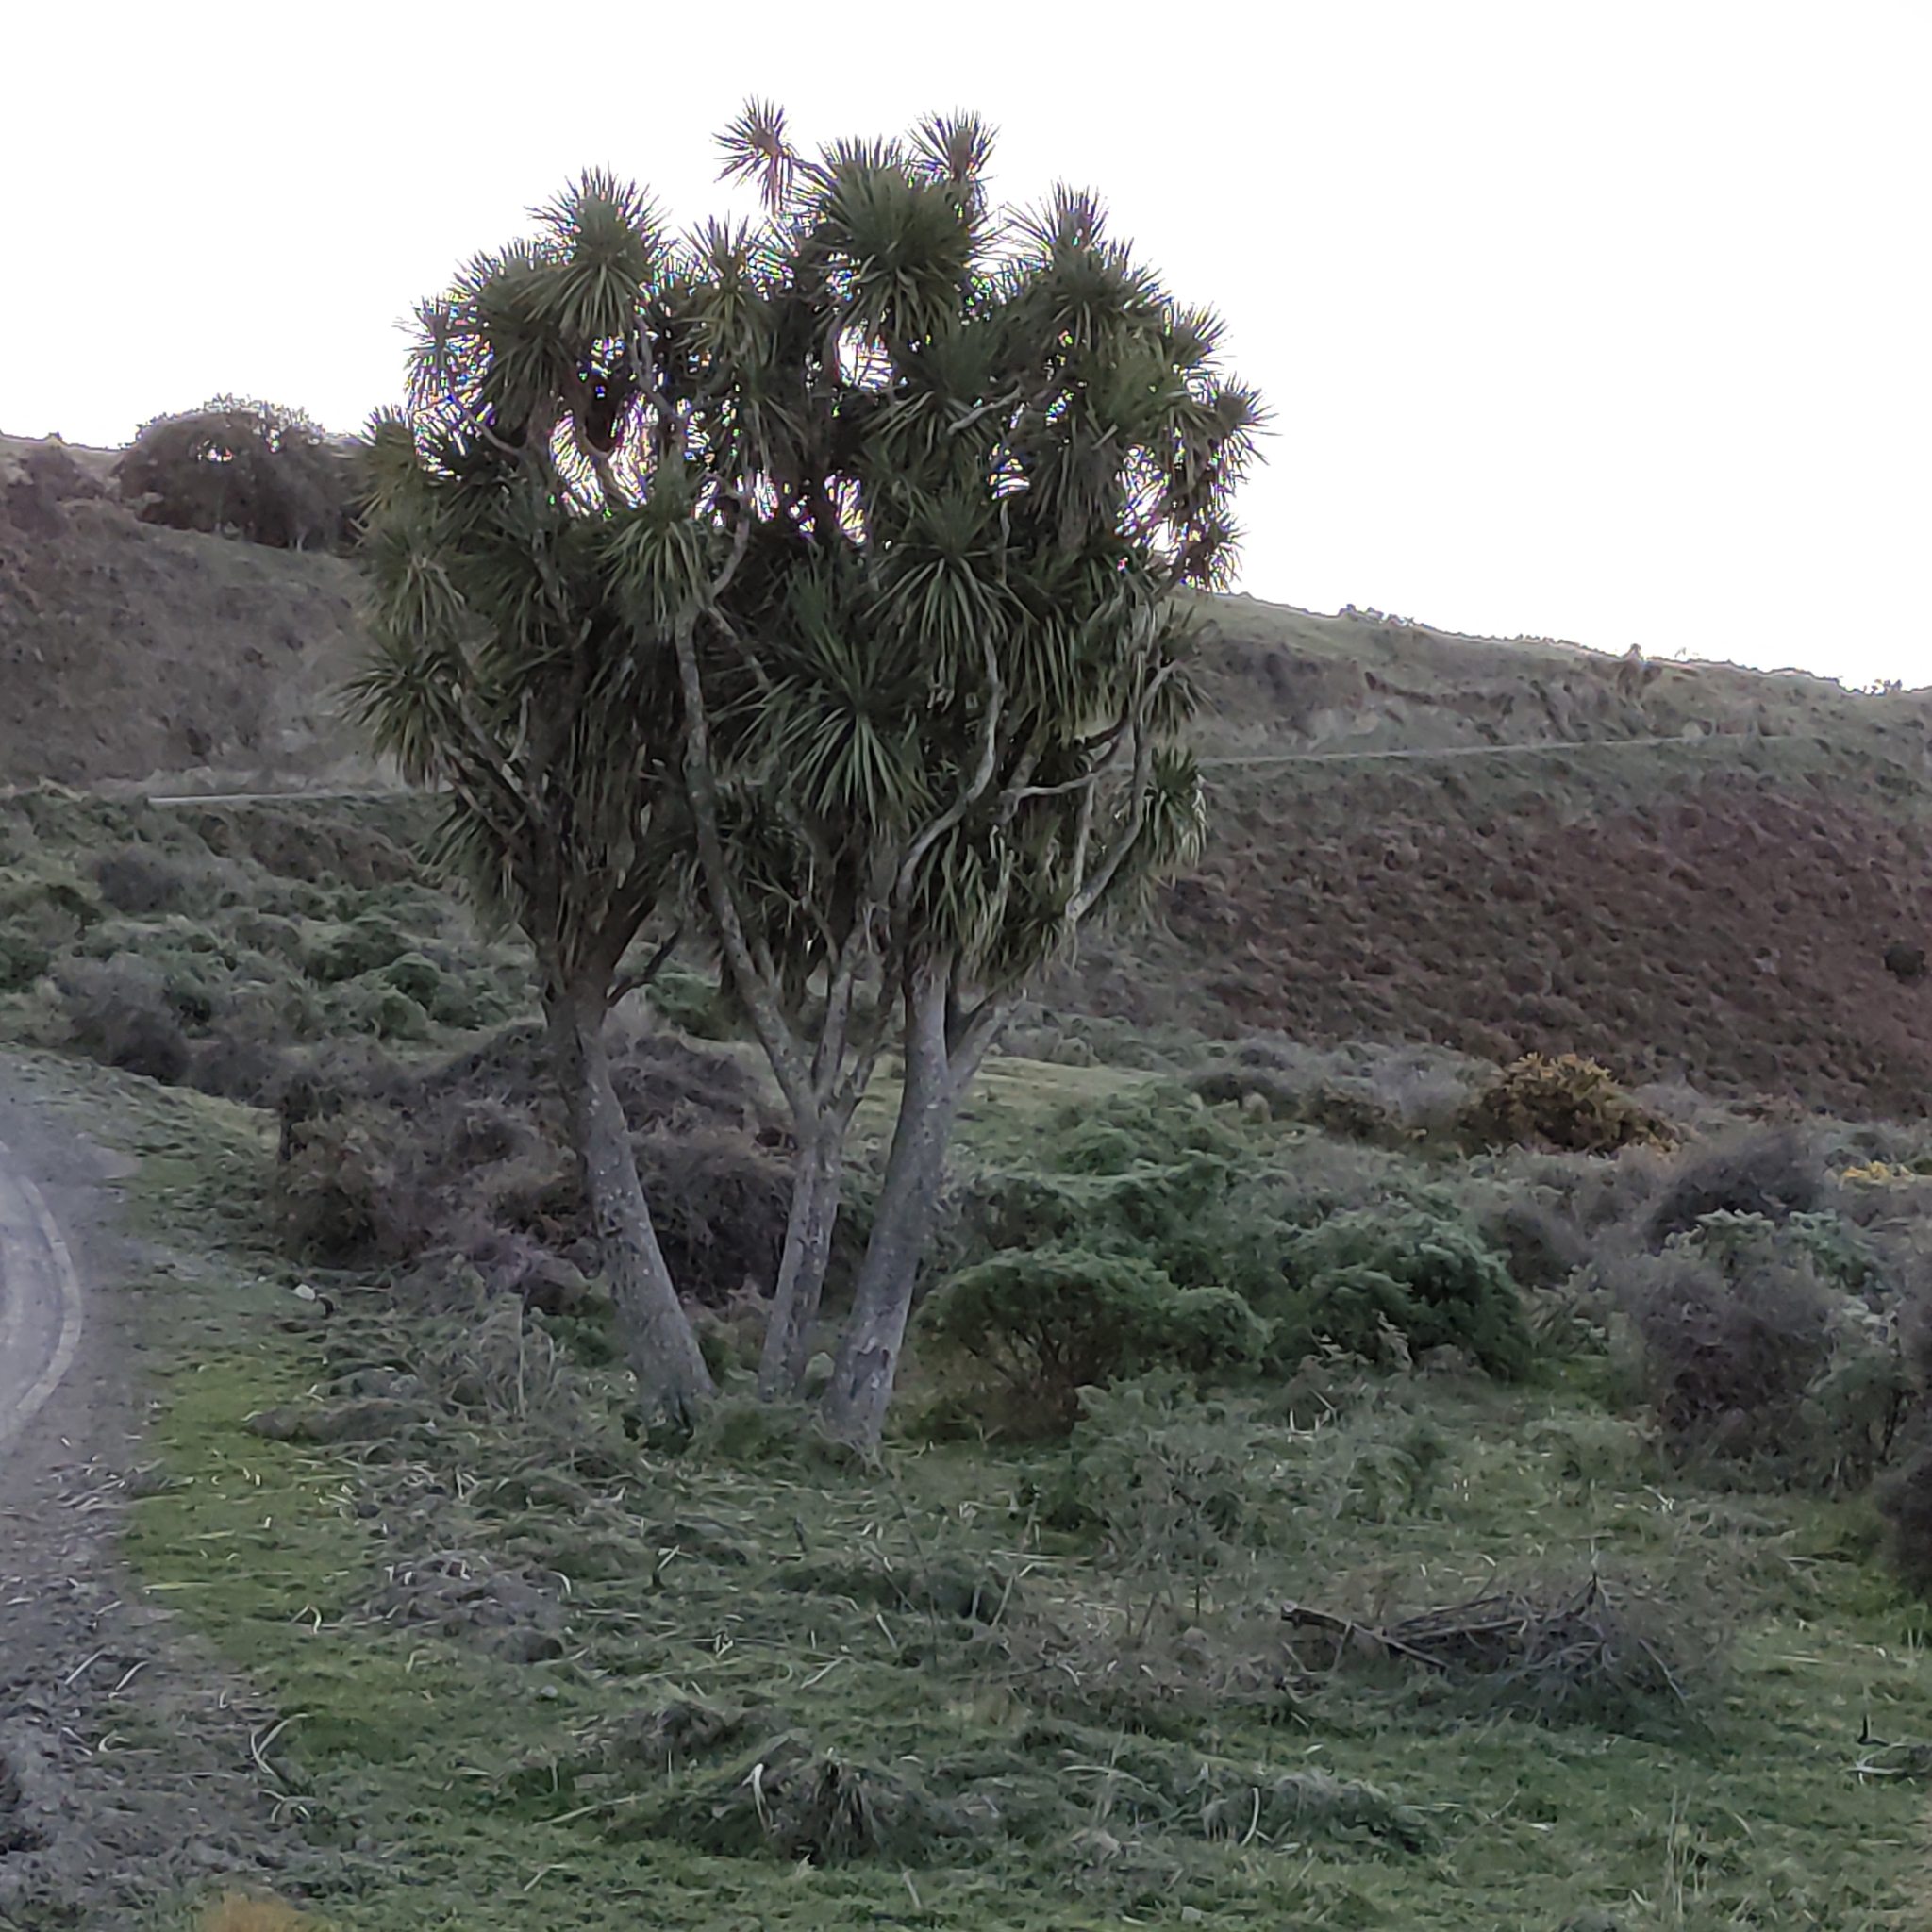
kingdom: Plantae
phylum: Tracheophyta
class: Liliopsida
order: Asparagales
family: Asparagaceae
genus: Cordyline
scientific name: Cordyline australis
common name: Cabbage-palm
